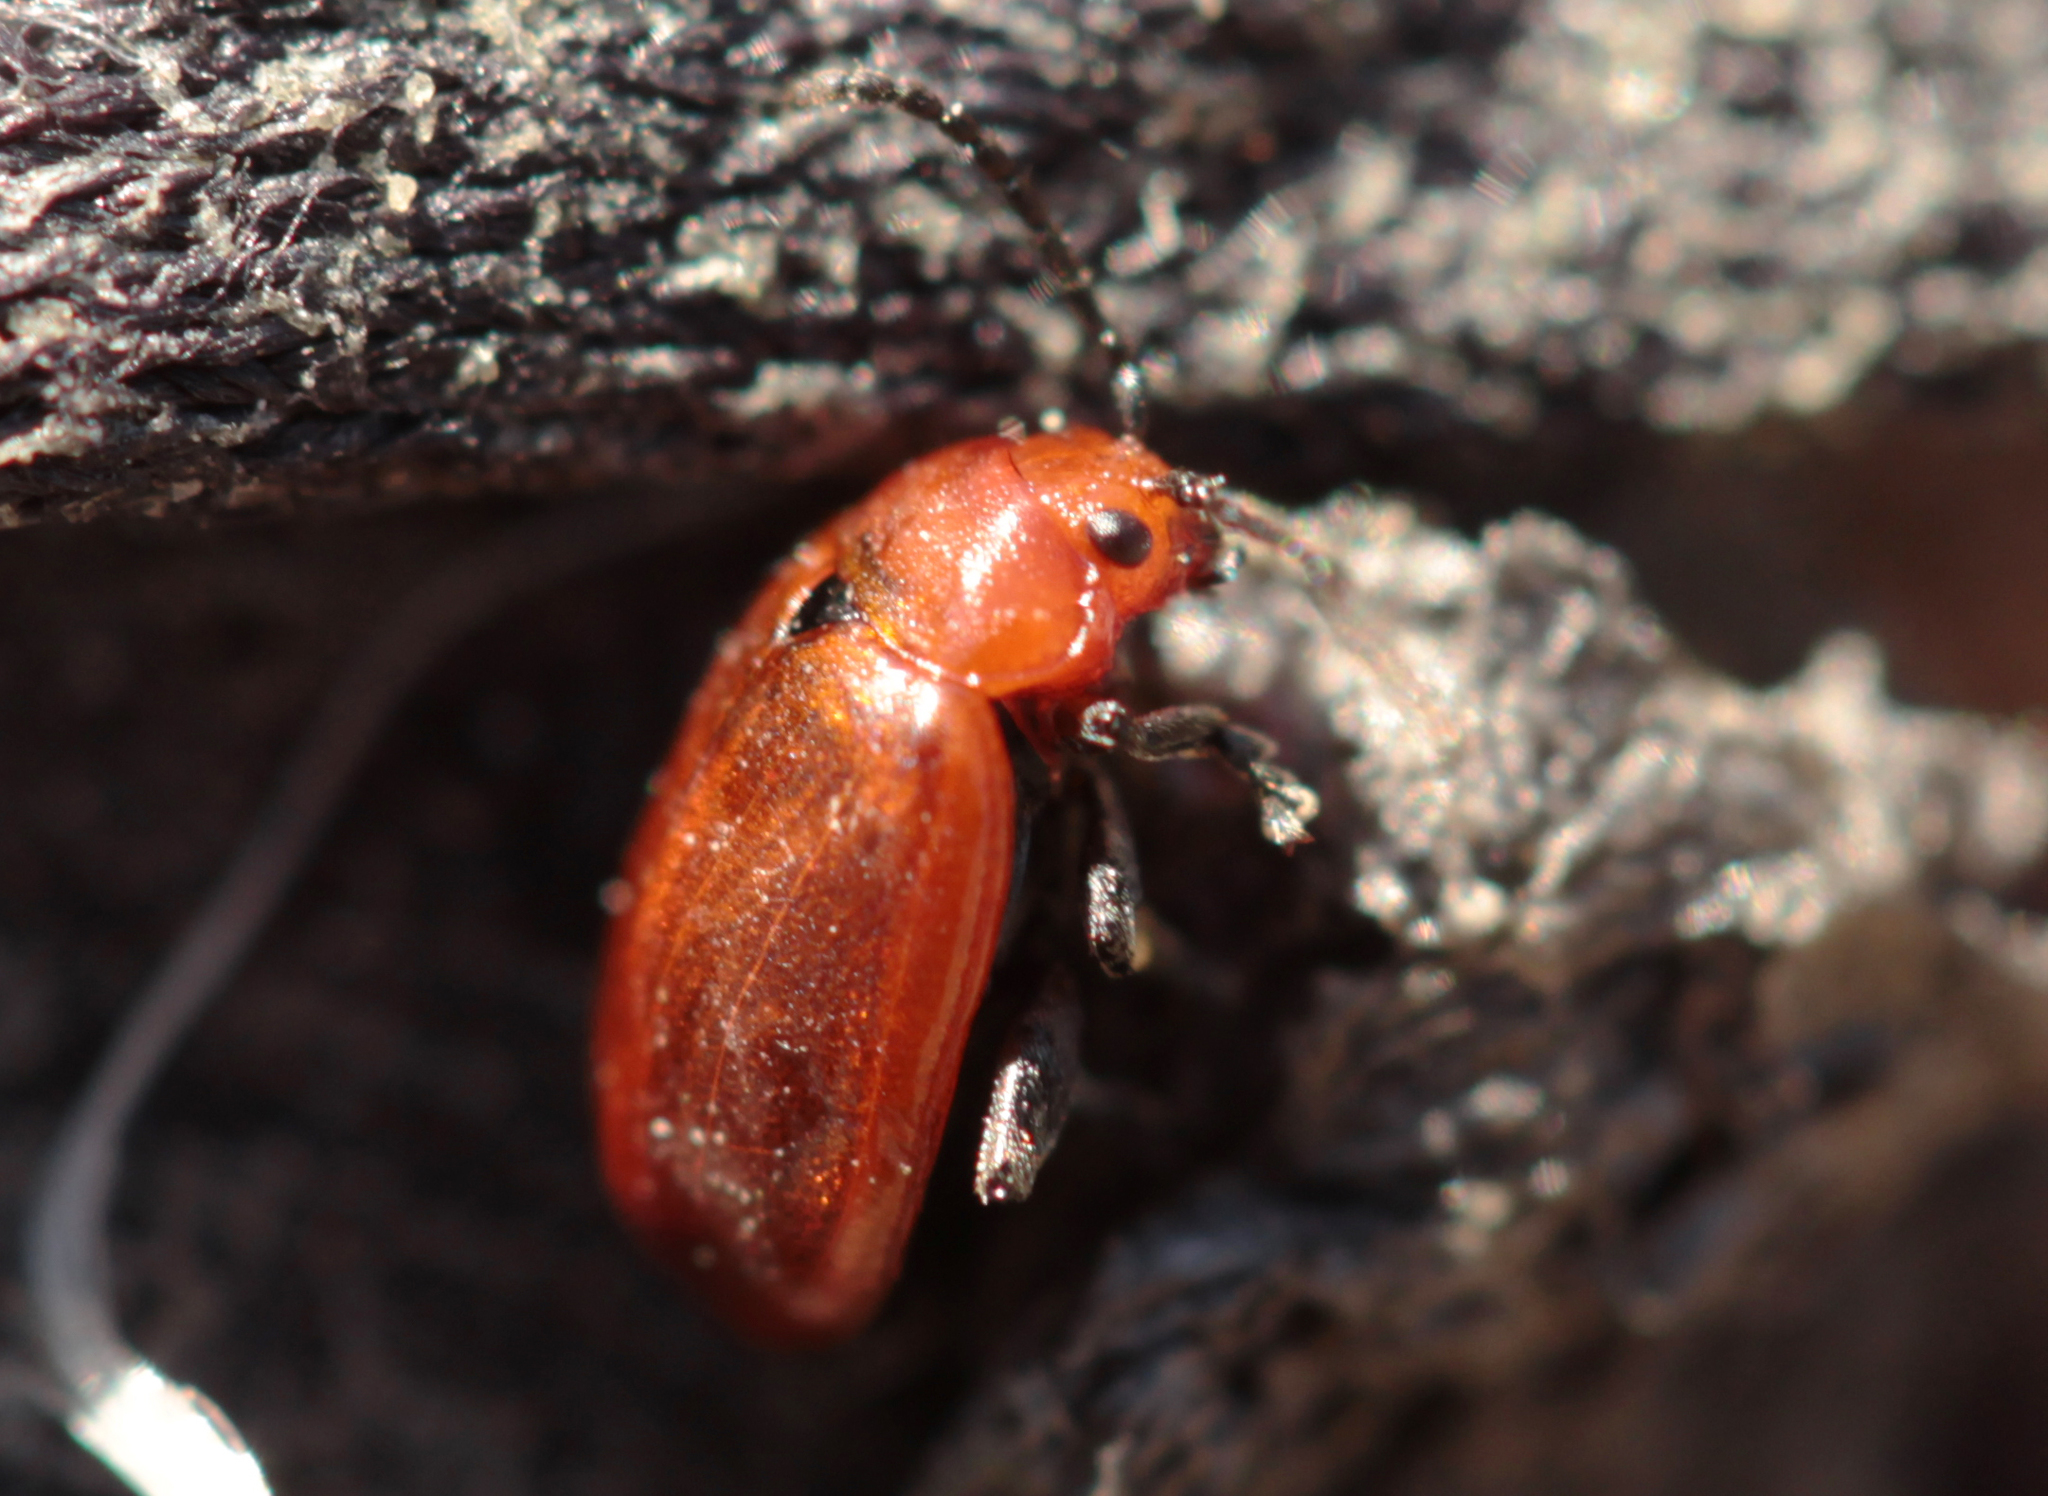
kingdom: Animalia
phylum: Arthropoda
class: Insecta
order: Coleoptera
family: Chrysomelidae
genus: Strabala
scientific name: Strabala rufa
